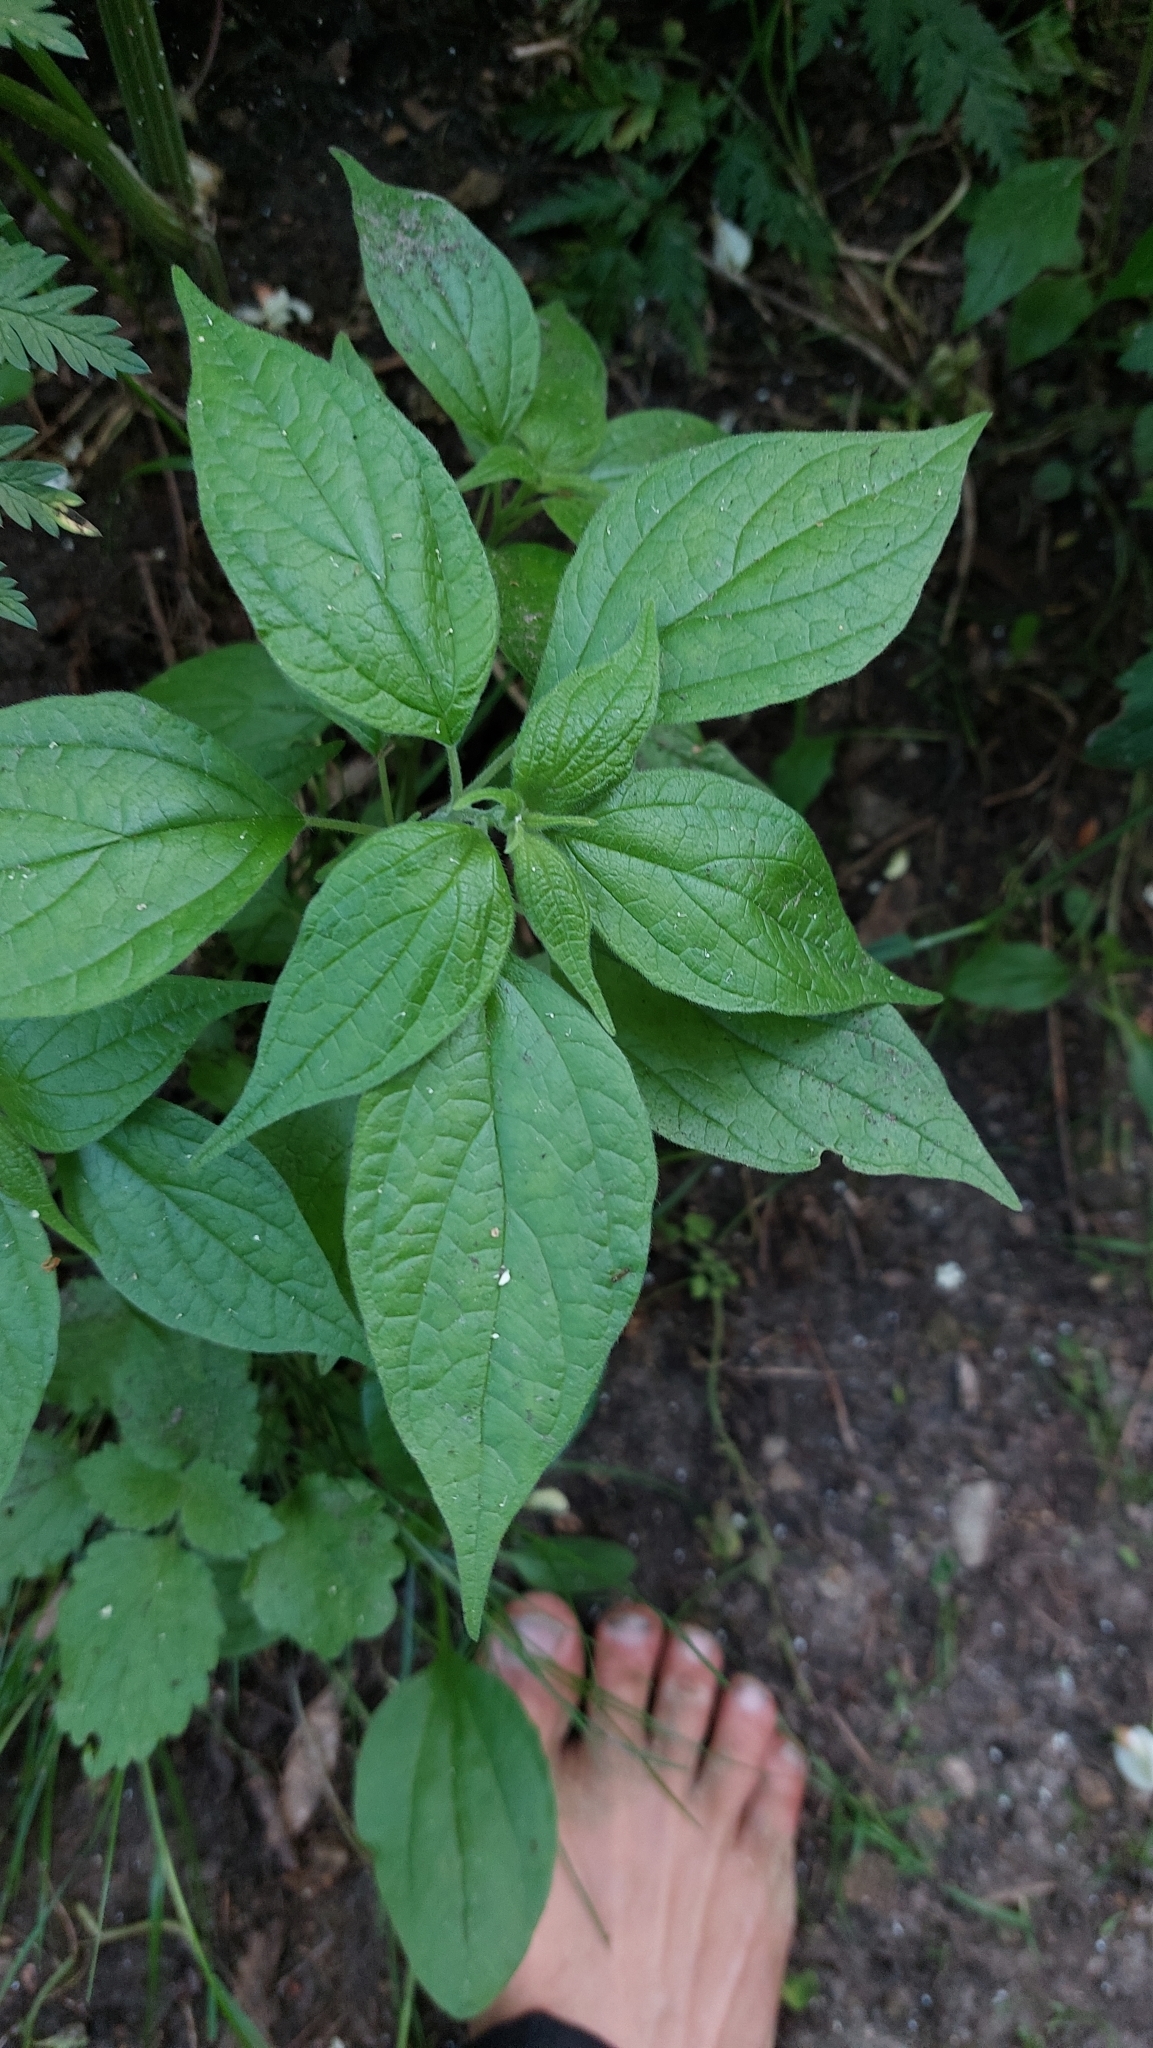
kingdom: Plantae
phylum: Tracheophyta
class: Magnoliopsida
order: Rosales
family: Urticaceae
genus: Parietaria
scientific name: Parietaria officinalis
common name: Eastern pellitory-of-the-wall
